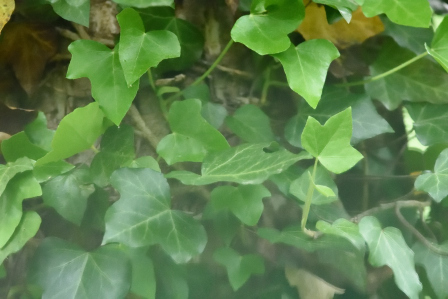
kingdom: Plantae
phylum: Tracheophyta
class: Magnoliopsida
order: Apiales
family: Araliaceae
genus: Hedera
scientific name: Hedera helix
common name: Ivy
